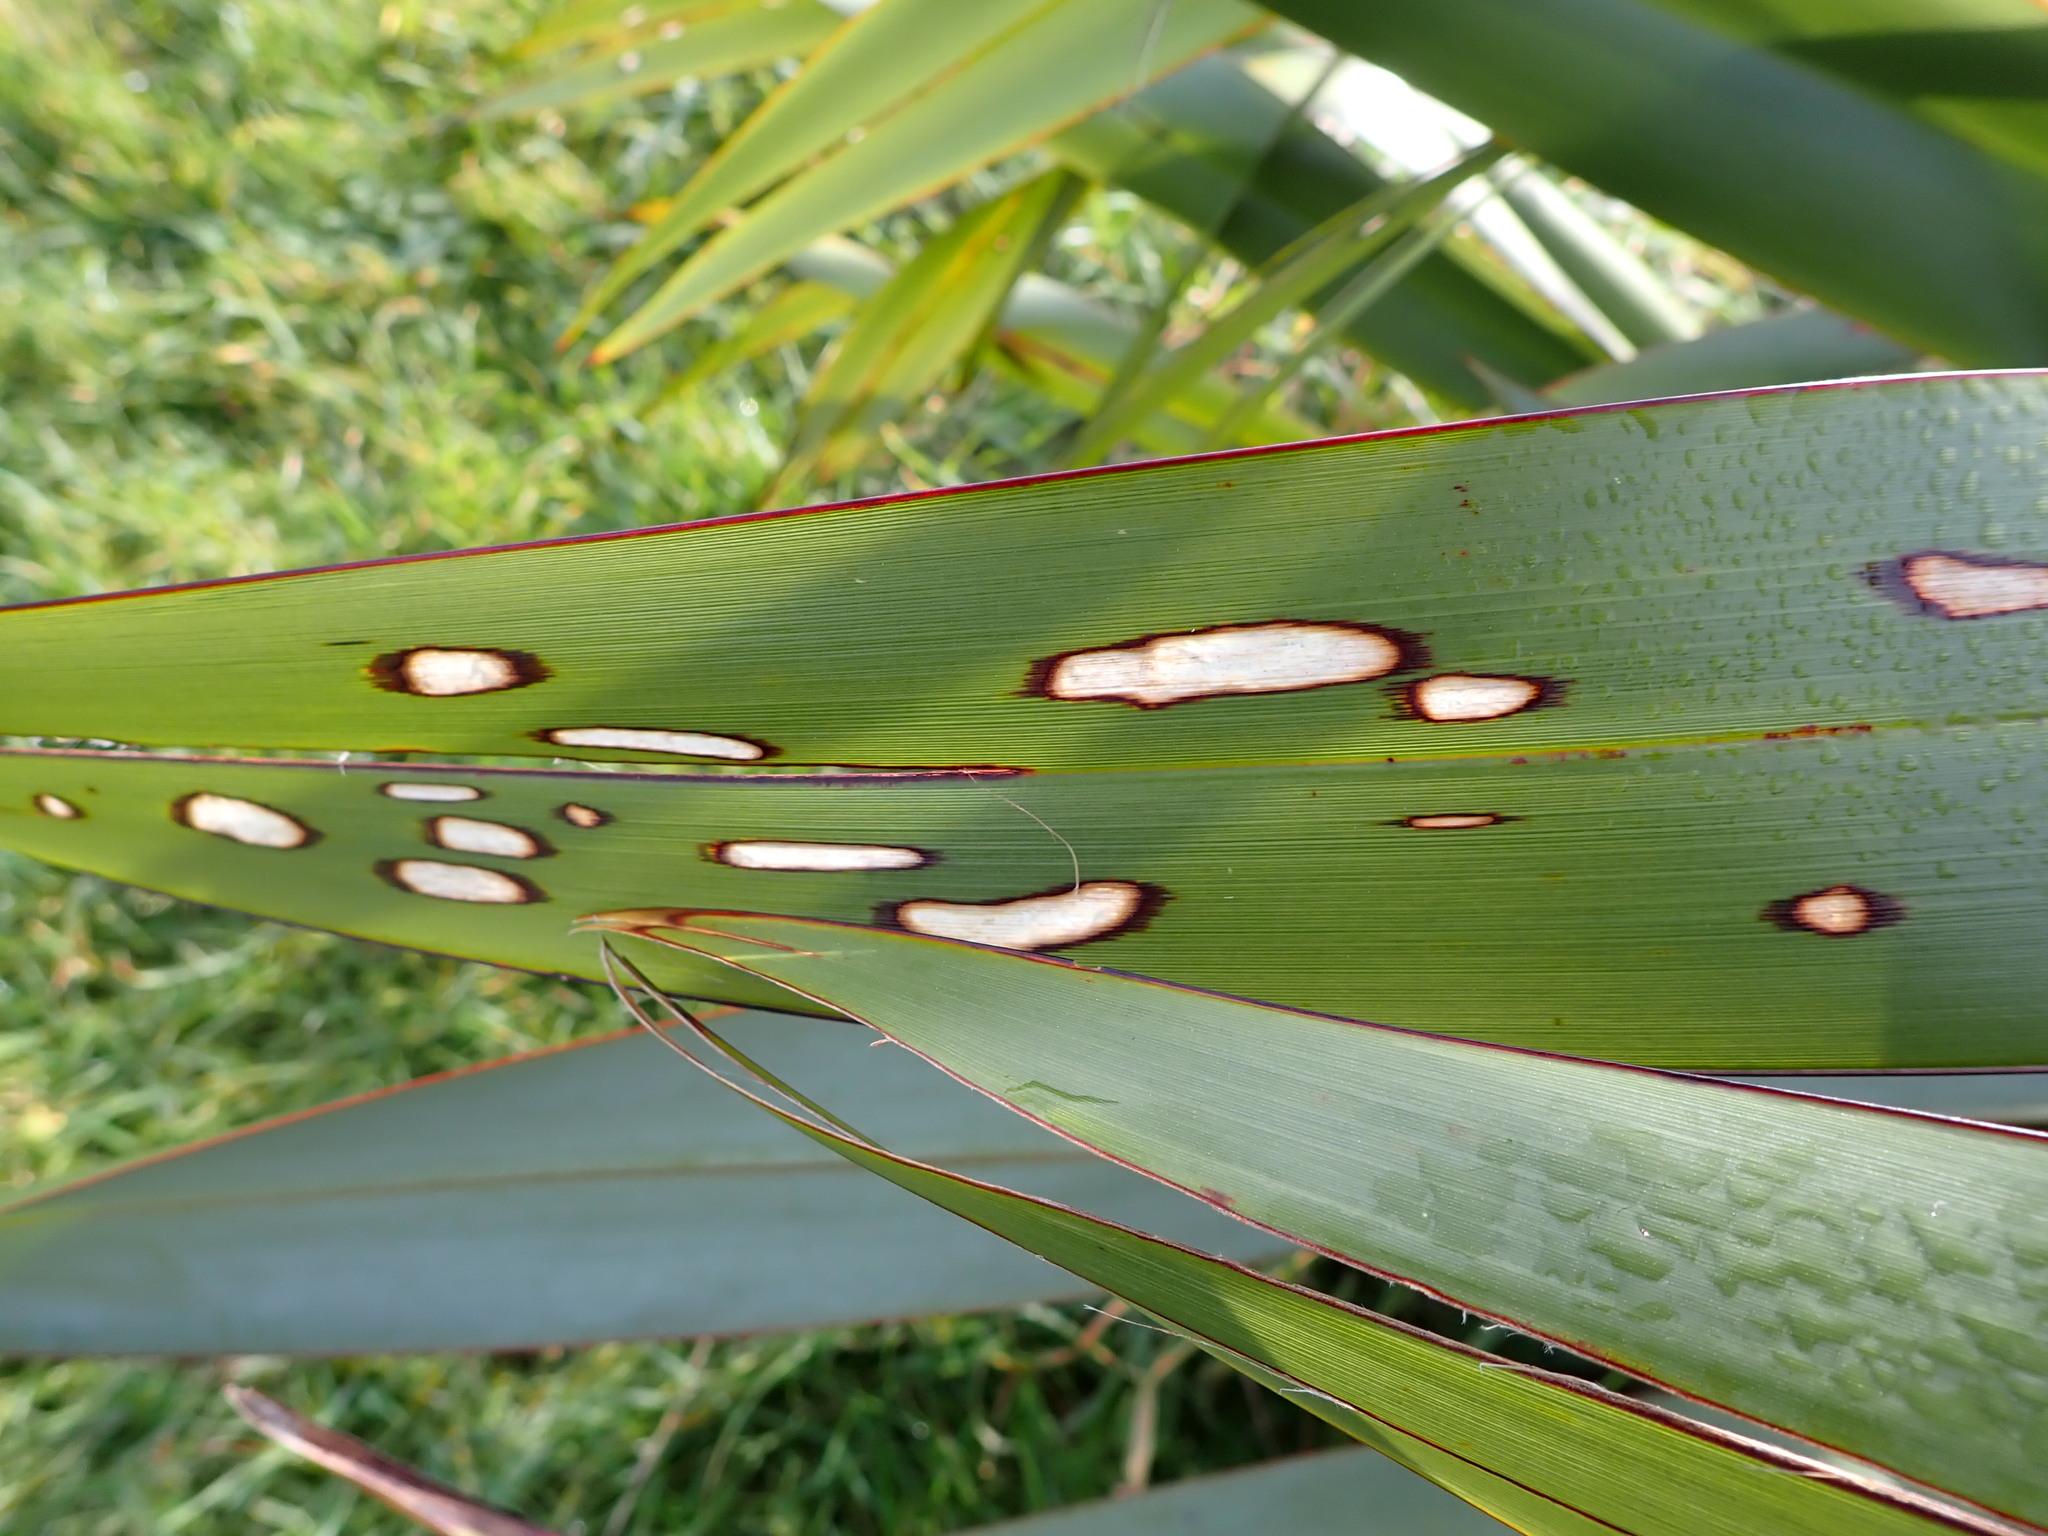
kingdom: Animalia
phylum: Arthropoda
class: Insecta
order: Lepidoptera
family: Geometridae
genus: Orthoclydon
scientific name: Orthoclydon praefectata
